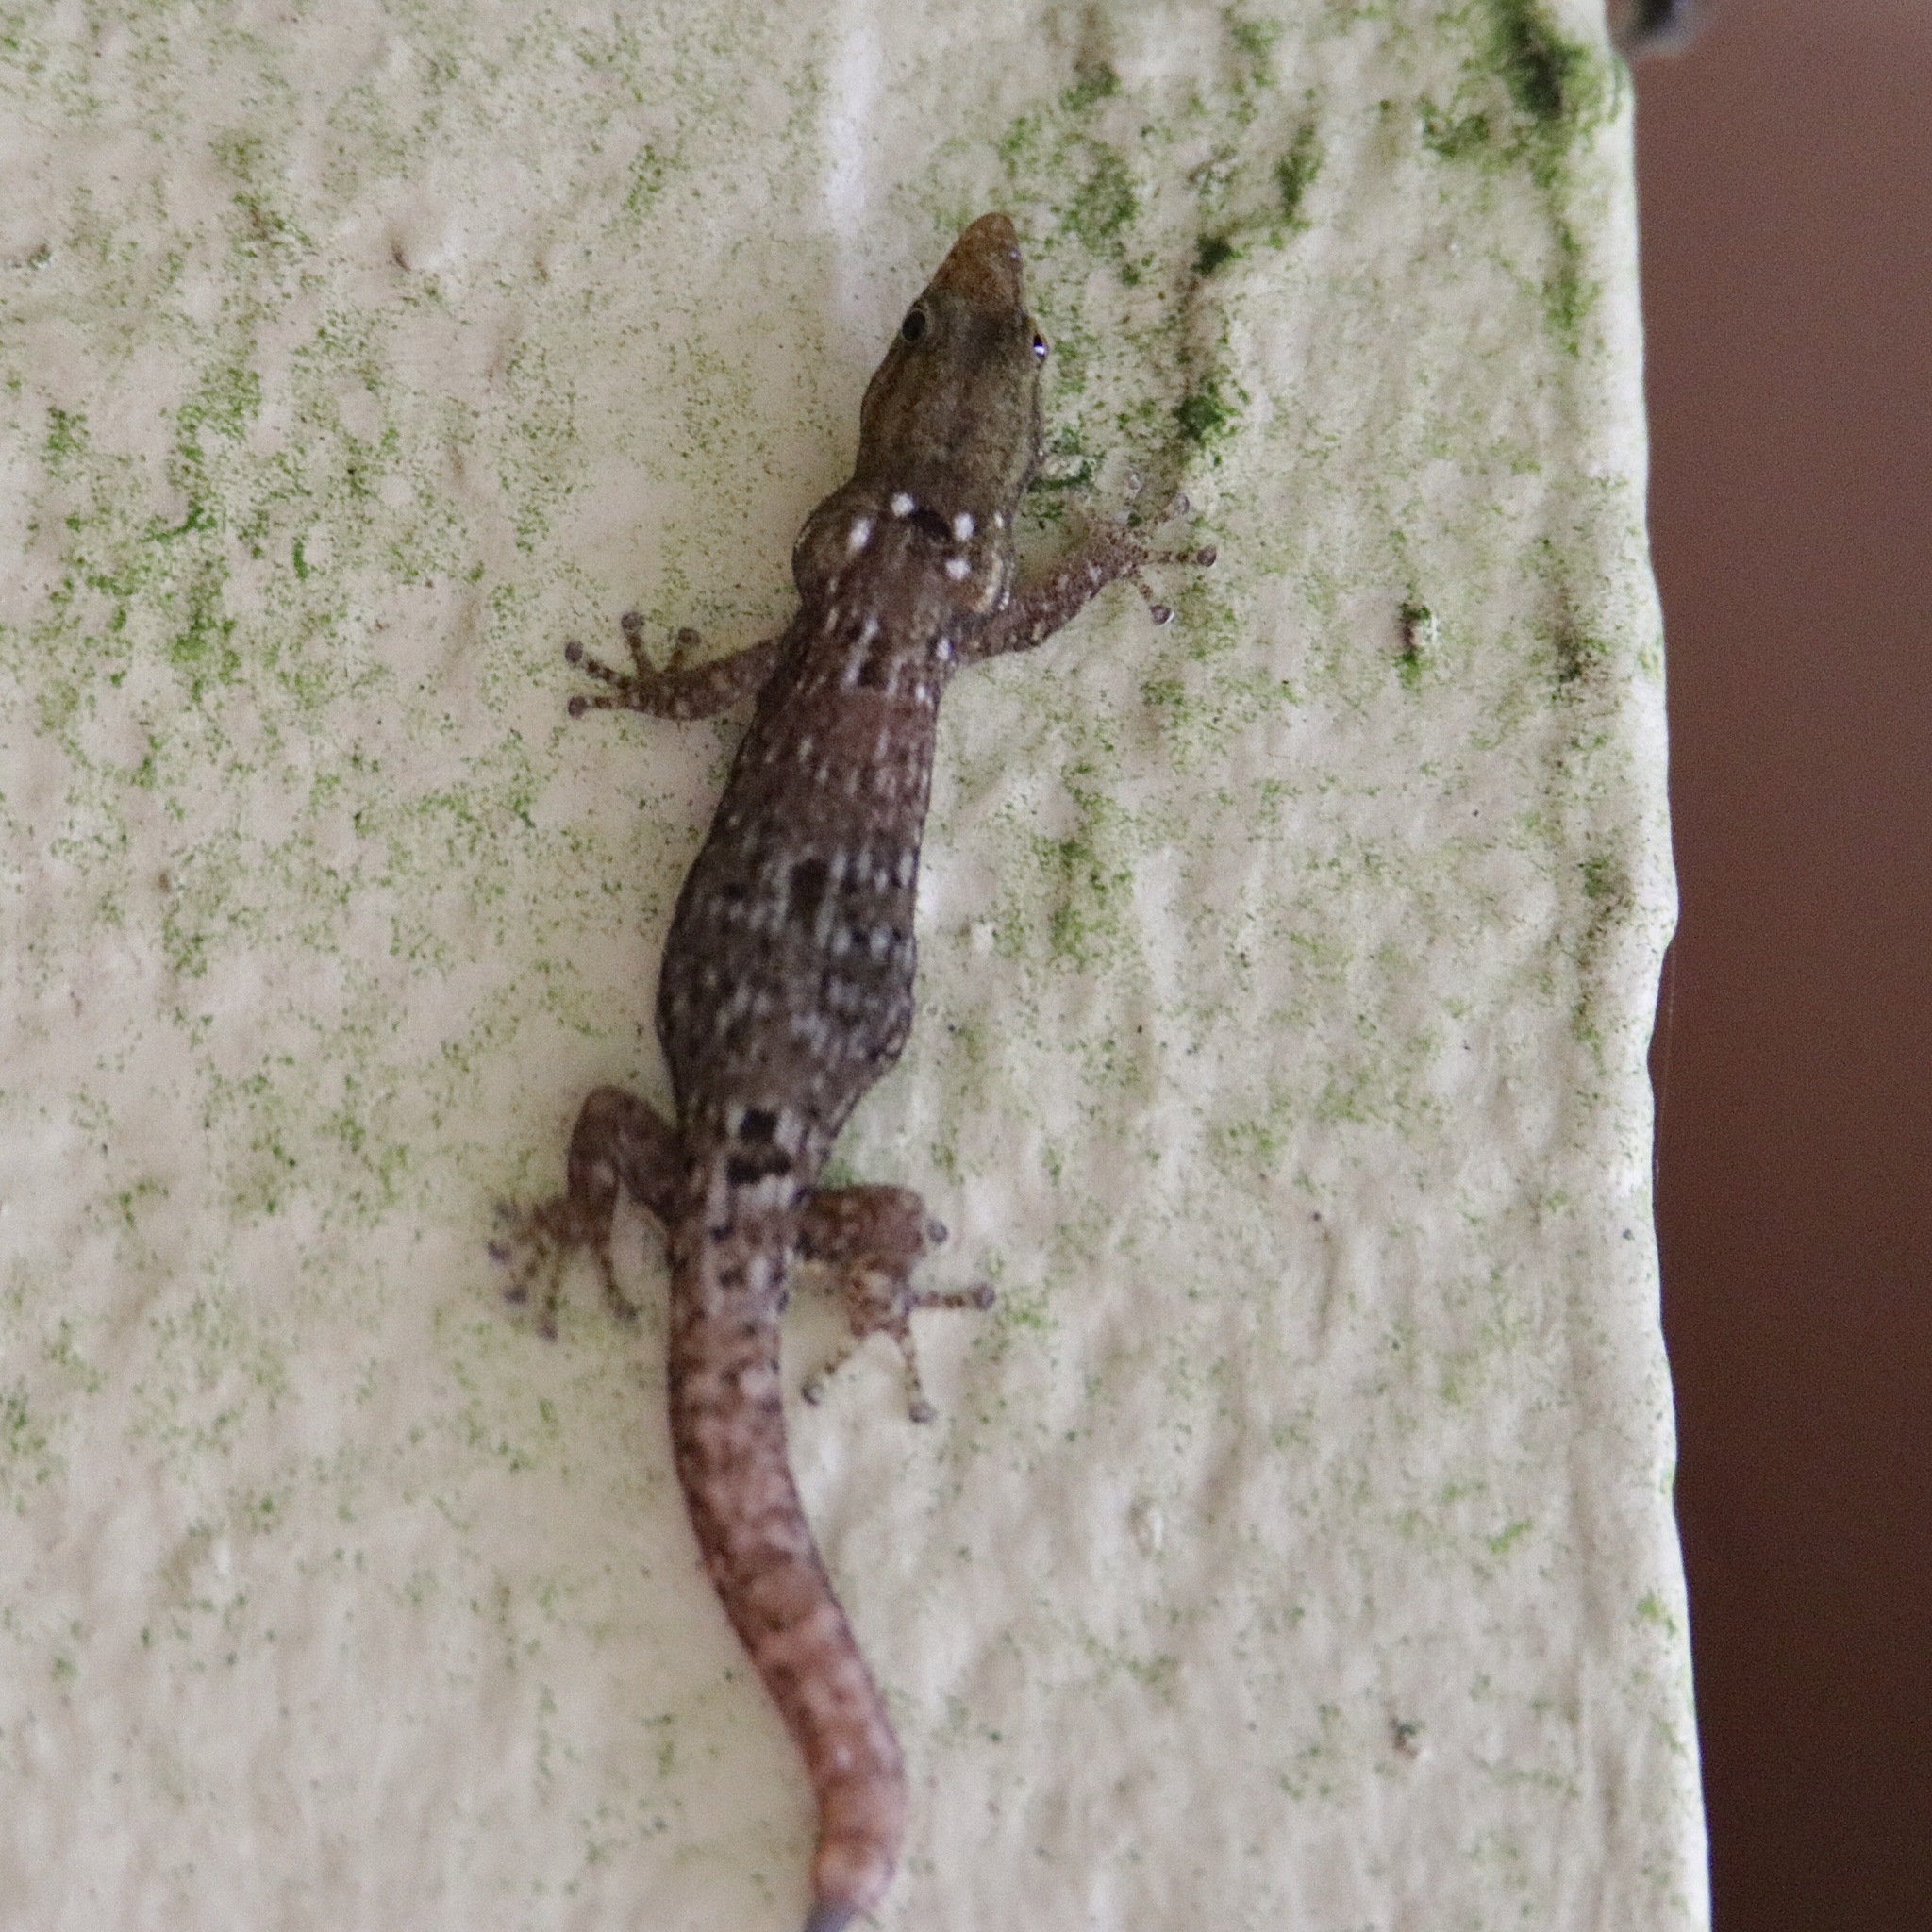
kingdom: Animalia
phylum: Chordata
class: Squamata
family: Sphaerodactylidae
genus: Sphaerodactylus
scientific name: Sphaerodactylus lineolatus
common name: Panama least gecko
